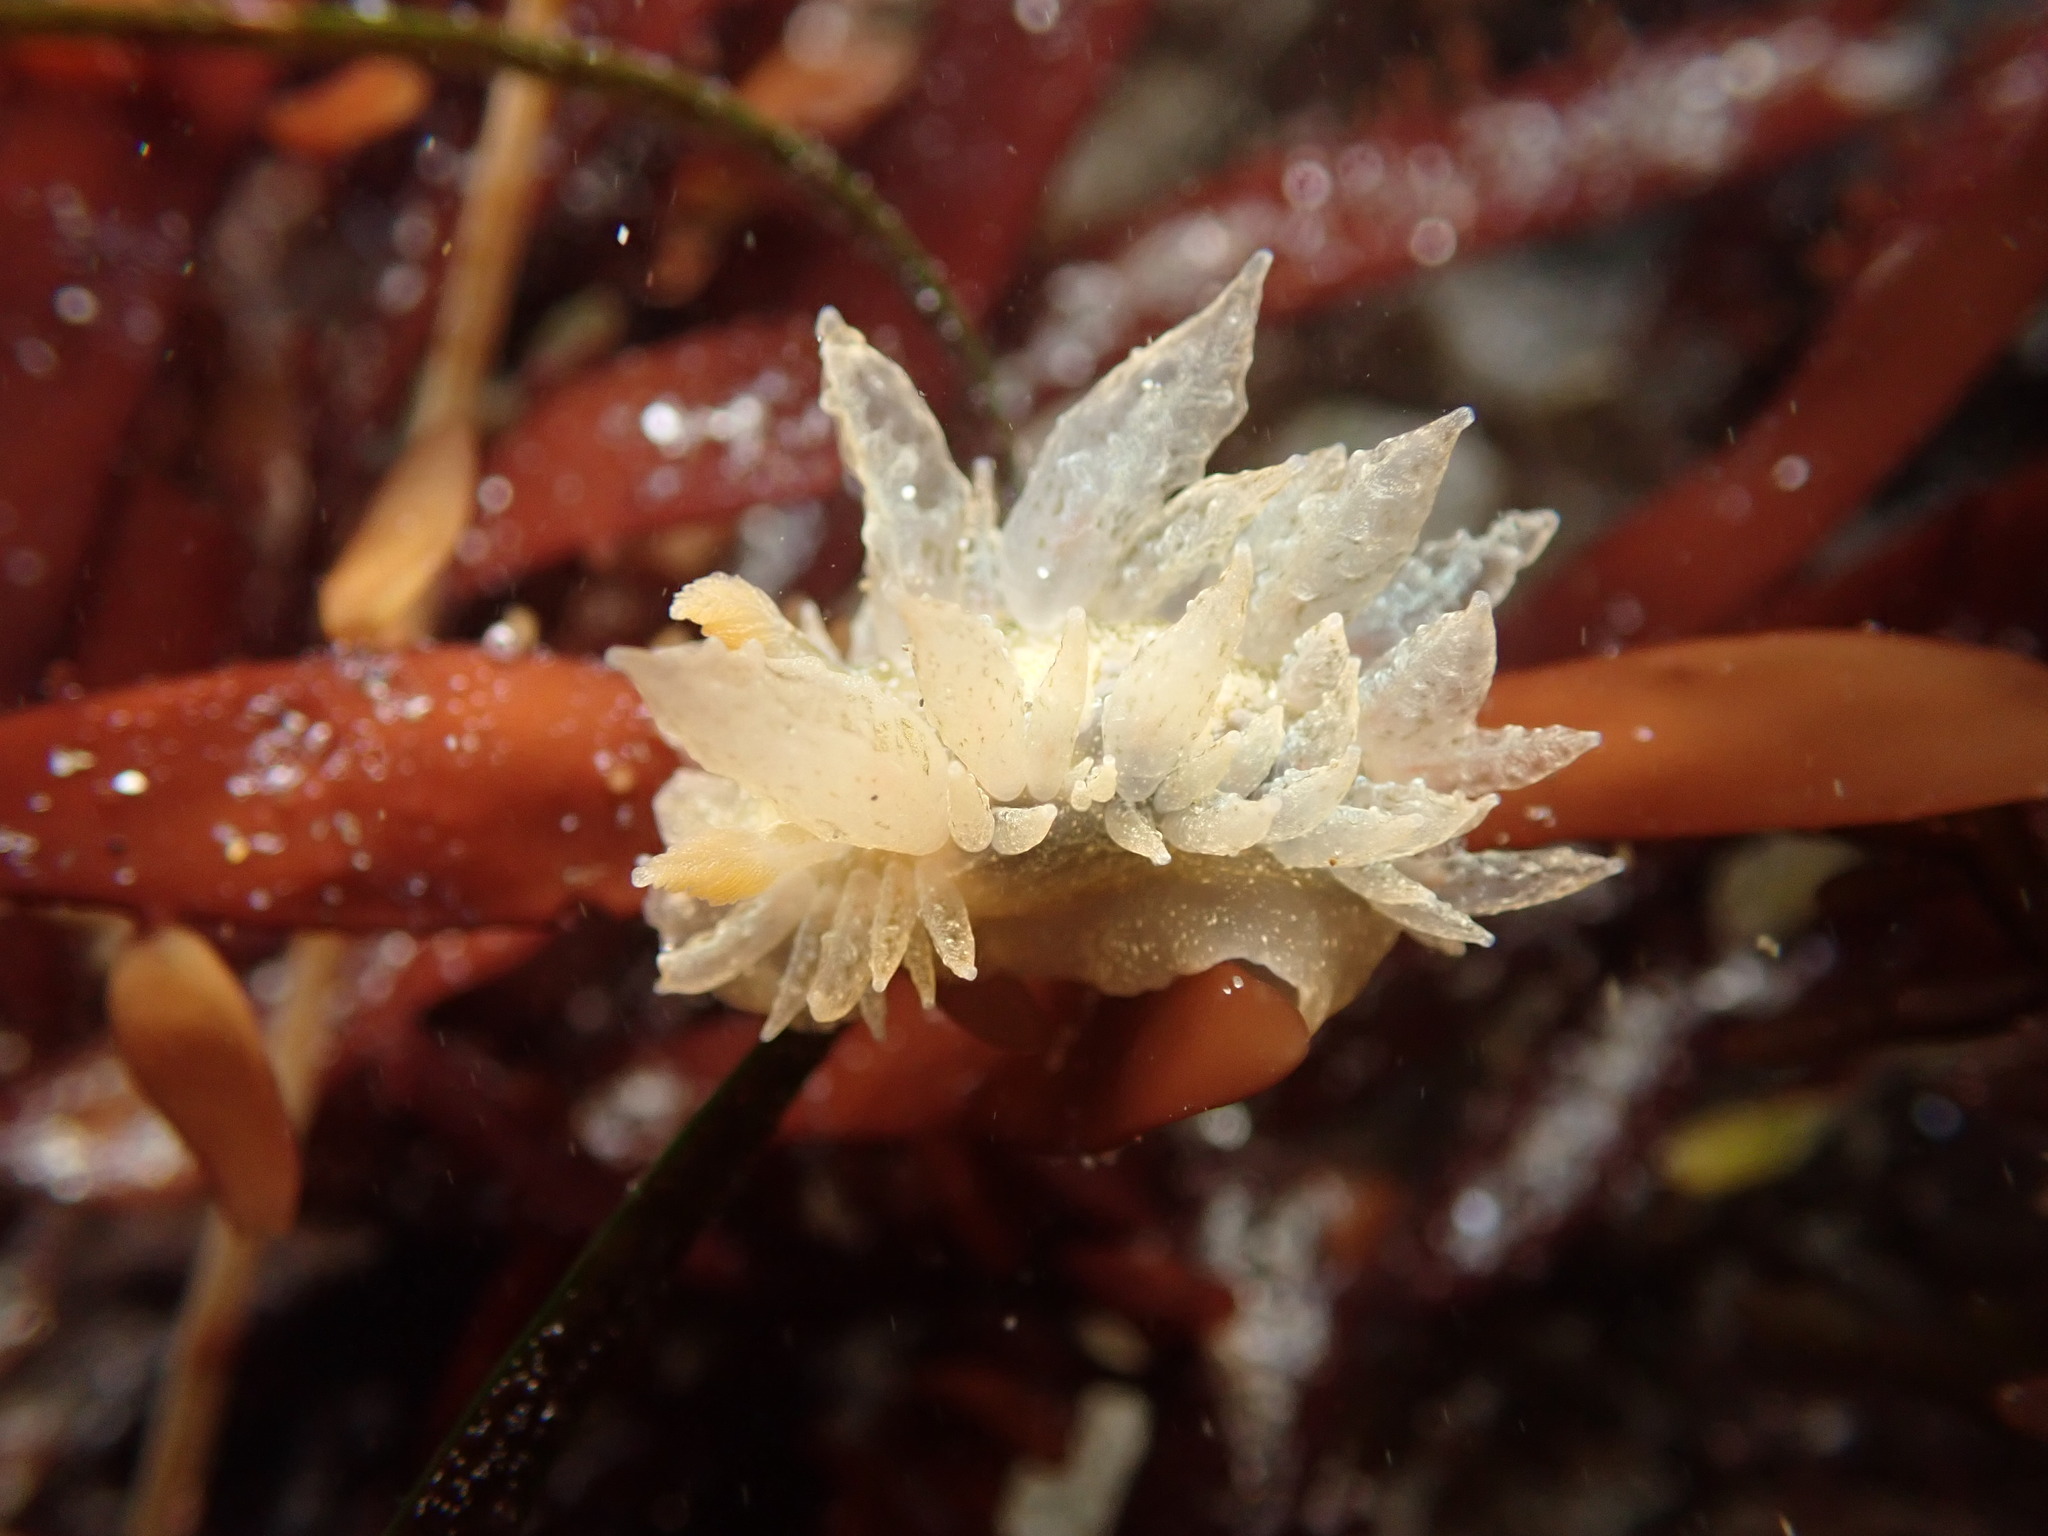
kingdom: Animalia
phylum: Mollusca
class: Gastropoda
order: Nudibranchia
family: Dironidae
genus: Dirona
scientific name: Dirona picta
